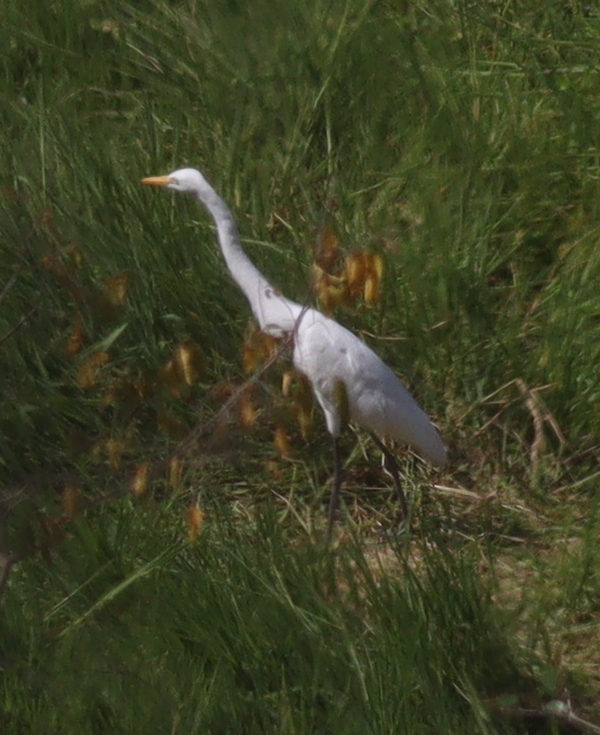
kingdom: Animalia
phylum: Chordata
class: Aves
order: Pelecaniformes
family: Ardeidae
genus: Egretta
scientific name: Egretta intermedia
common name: Intermediate egret
